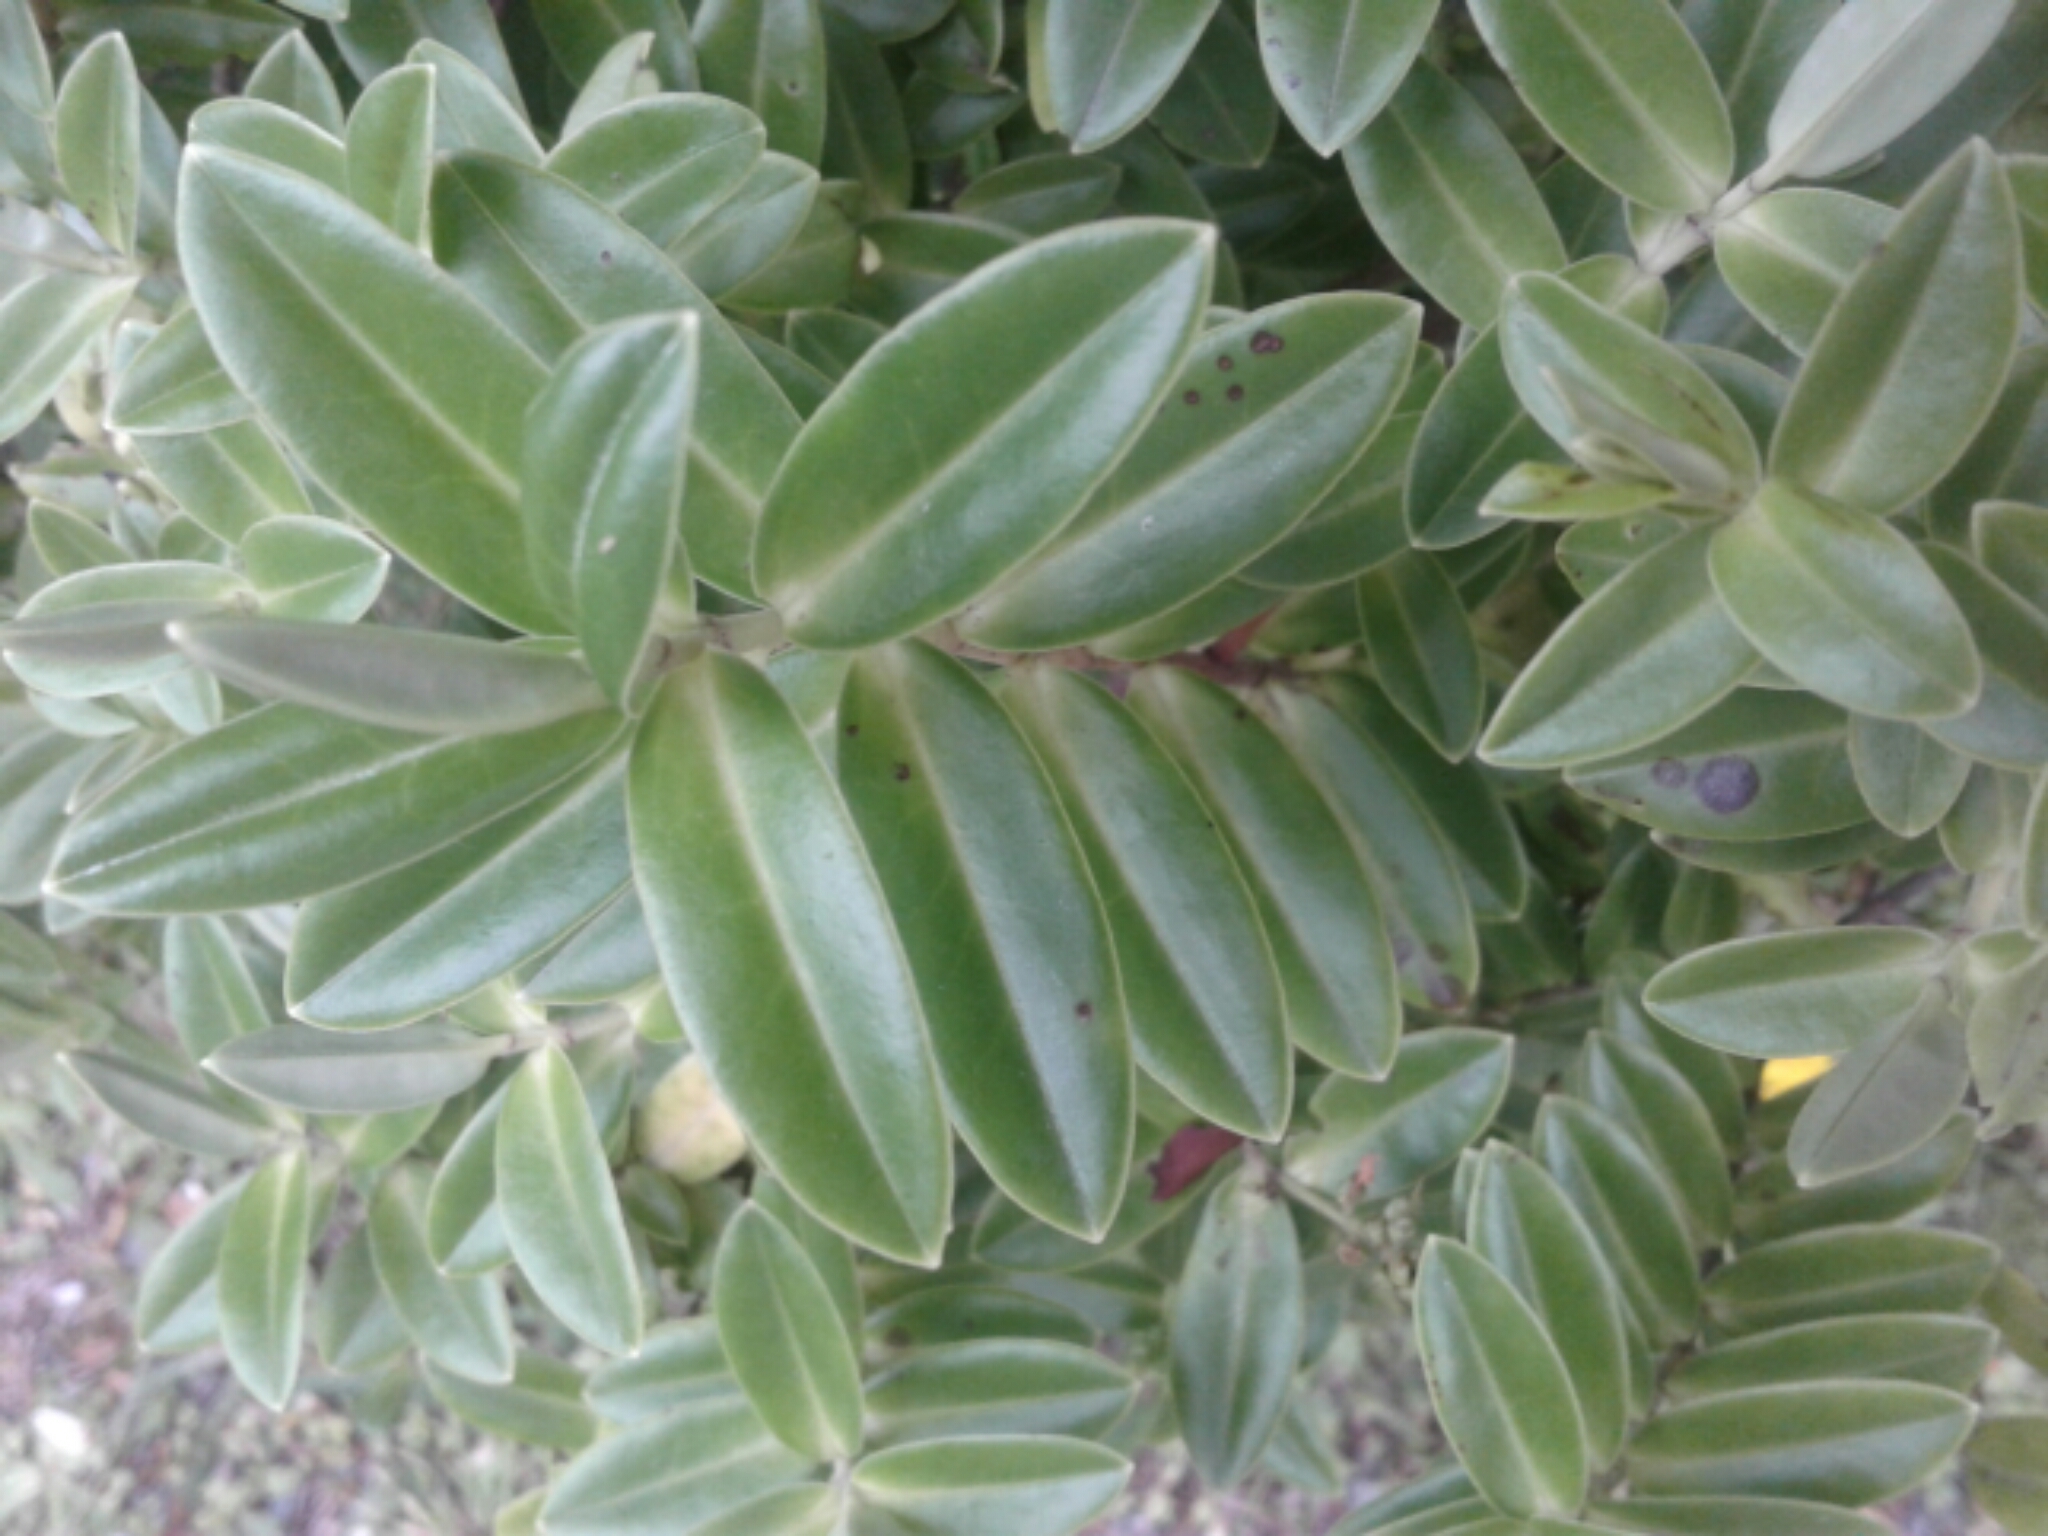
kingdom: Plantae
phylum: Tracheophyta
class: Magnoliopsida
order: Lamiales
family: Plantaginaceae
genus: Veronica
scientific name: Veronica
